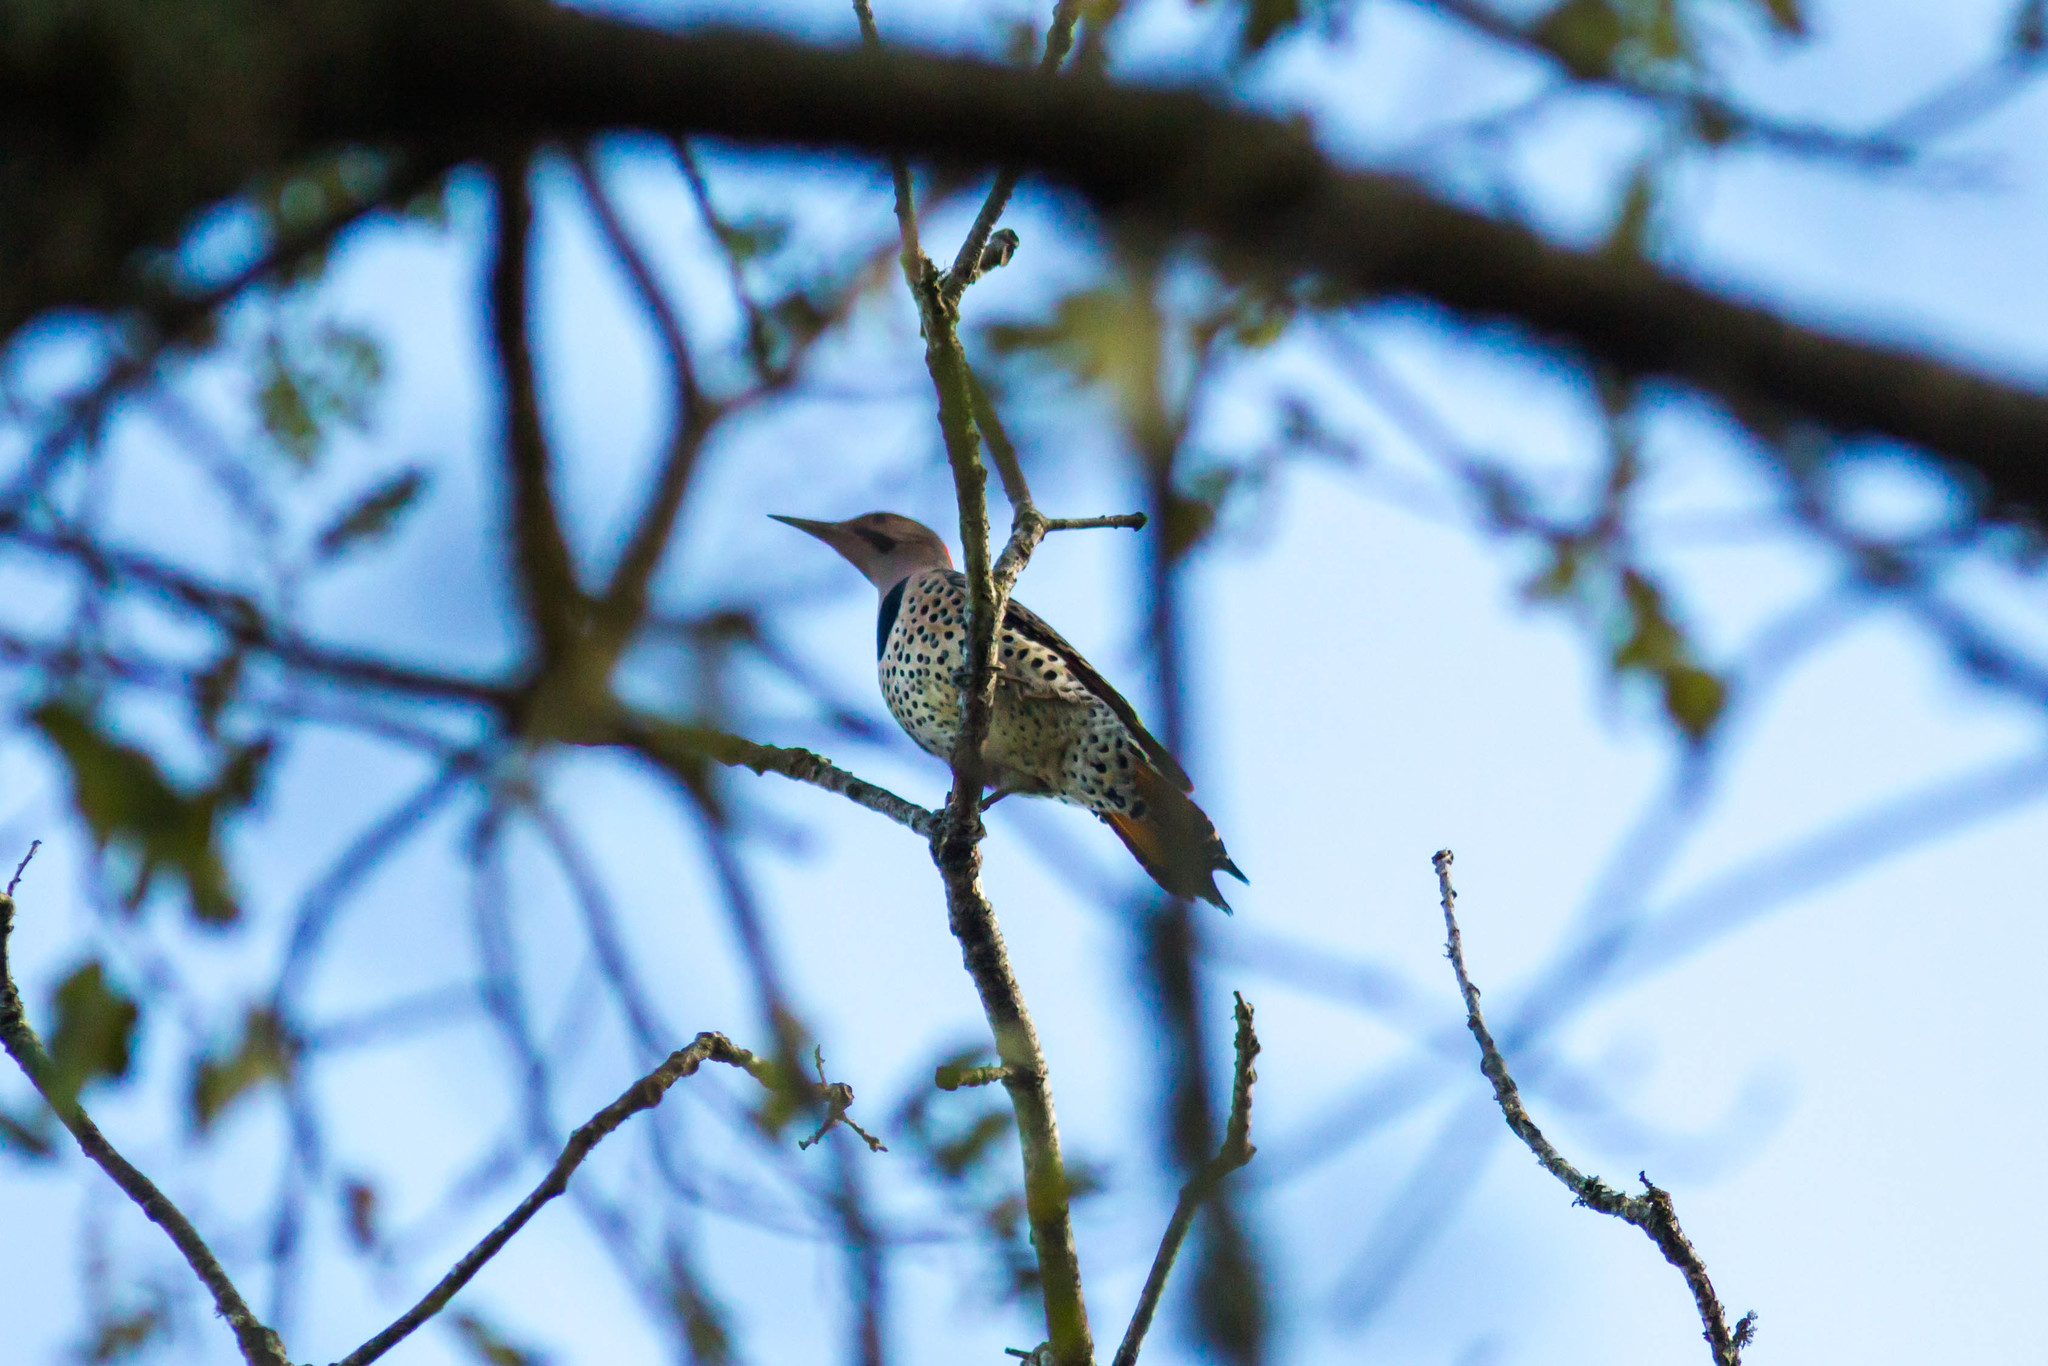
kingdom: Animalia
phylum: Chordata
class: Aves
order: Piciformes
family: Picidae
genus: Colaptes
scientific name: Colaptes auratus
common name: Northern flicker
